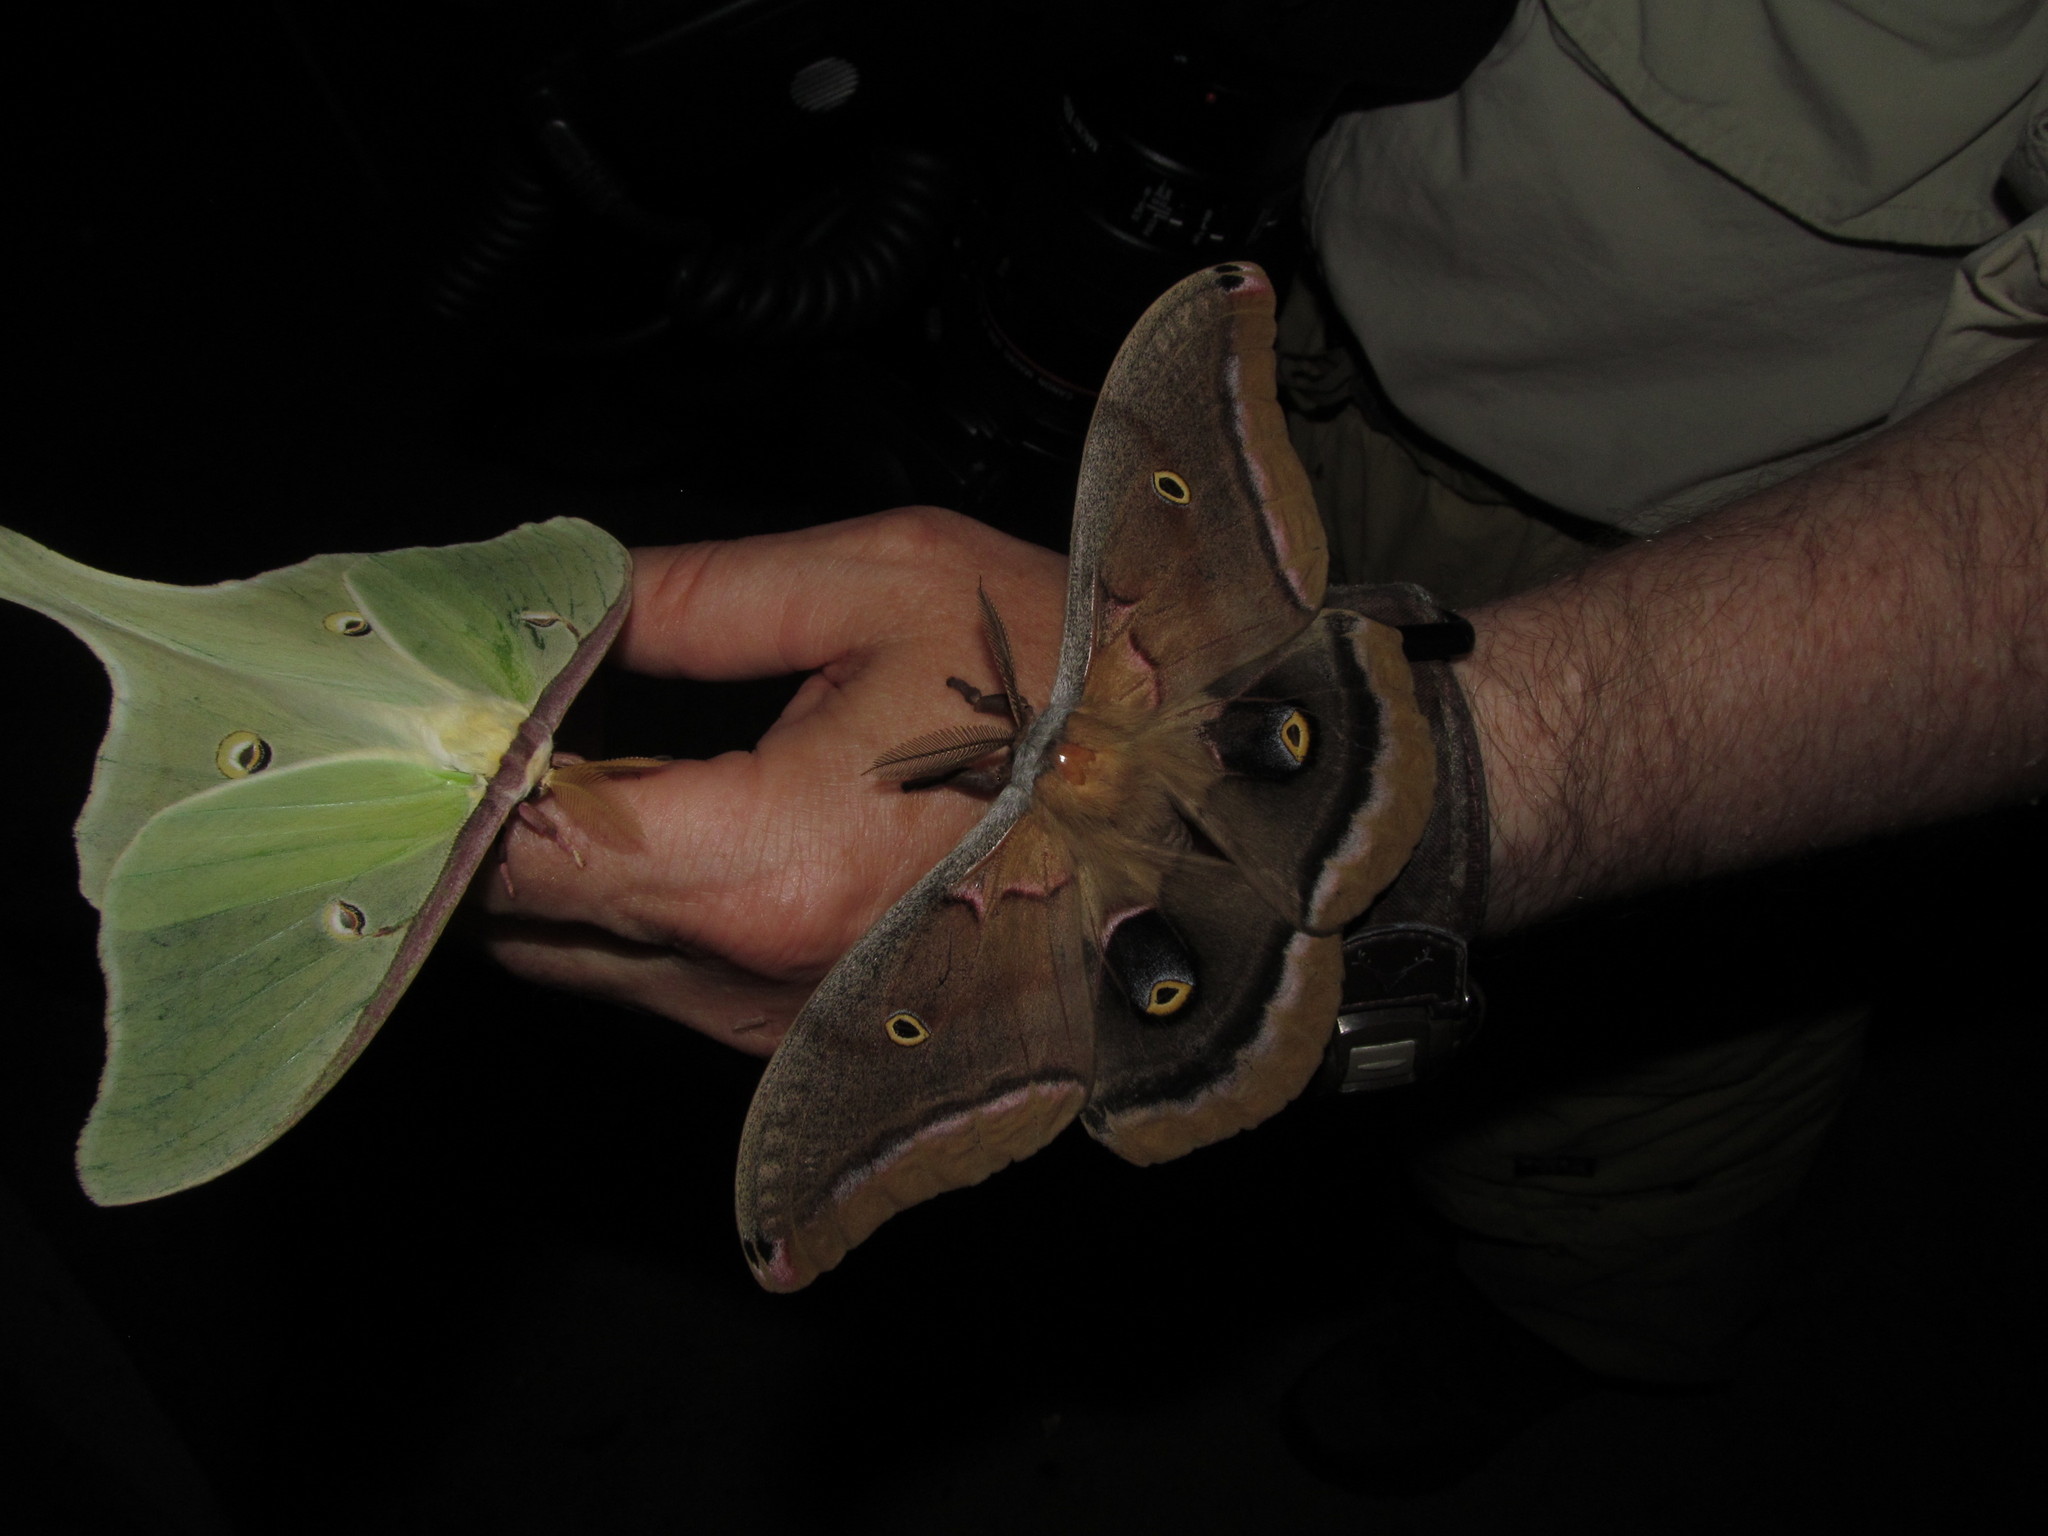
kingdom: Animalia
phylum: Arthropoda
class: Insecta
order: Lepidoptera
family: Saturniidae
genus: Actias
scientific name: Actias luna
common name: Luna moth
